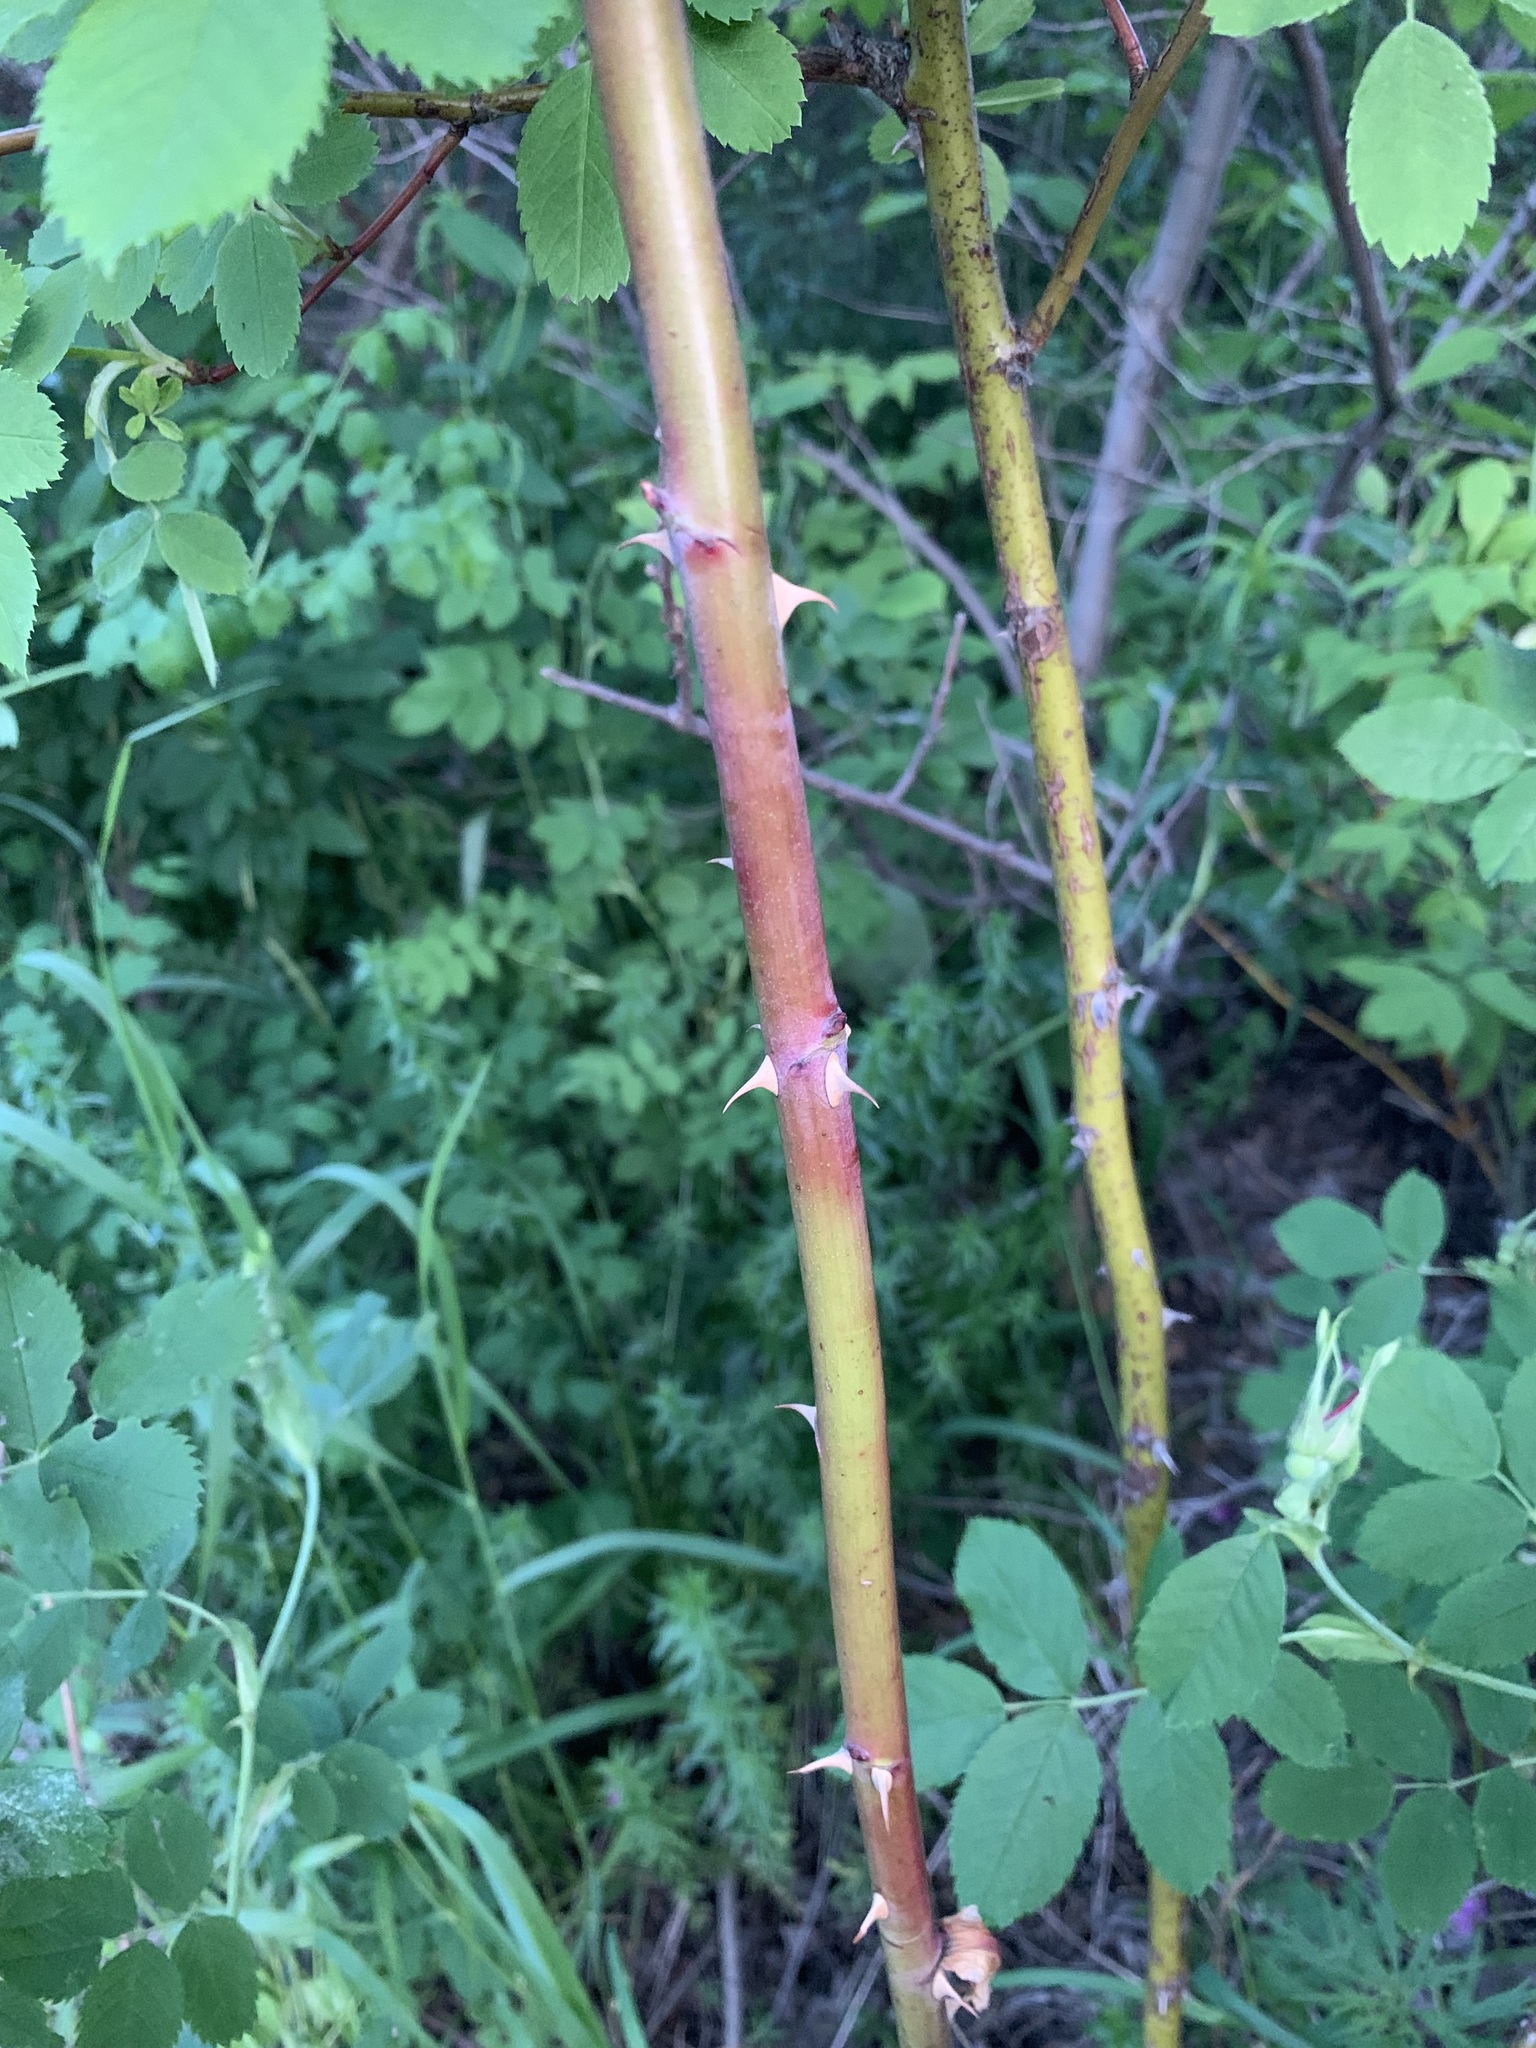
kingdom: Plantae
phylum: Tracheophyta
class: Magnoliopsida
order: Rosales
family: Rosaceae
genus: Rosa
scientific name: Rosa majalis
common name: Cinnamon rose
